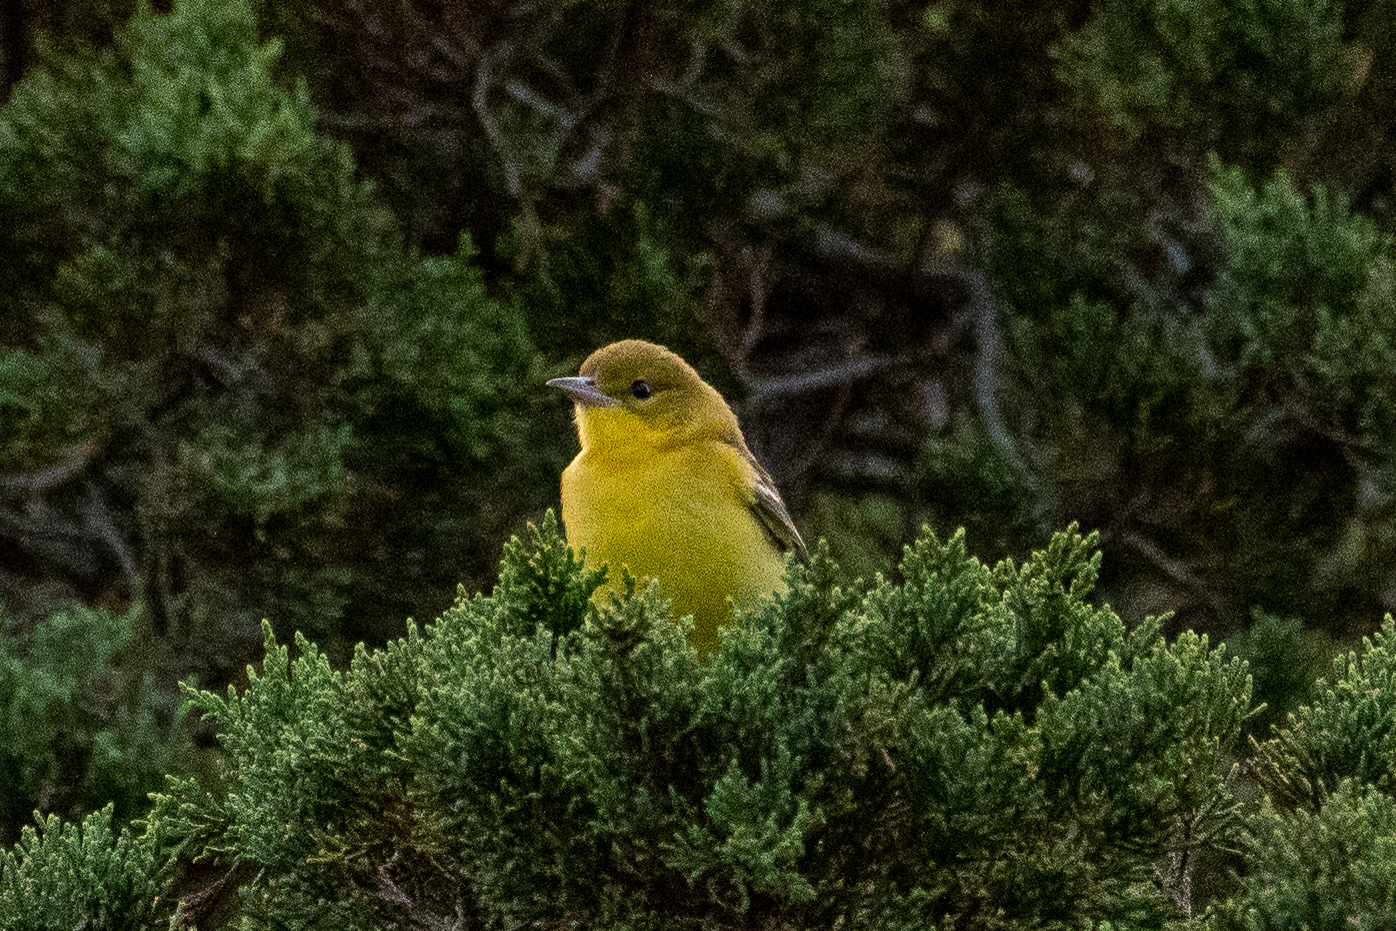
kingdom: Animalia
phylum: Chordata
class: Aves
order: Passeriformes
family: Icteridae
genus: Icterus
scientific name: Icterus spurius
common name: Orchard oriole
